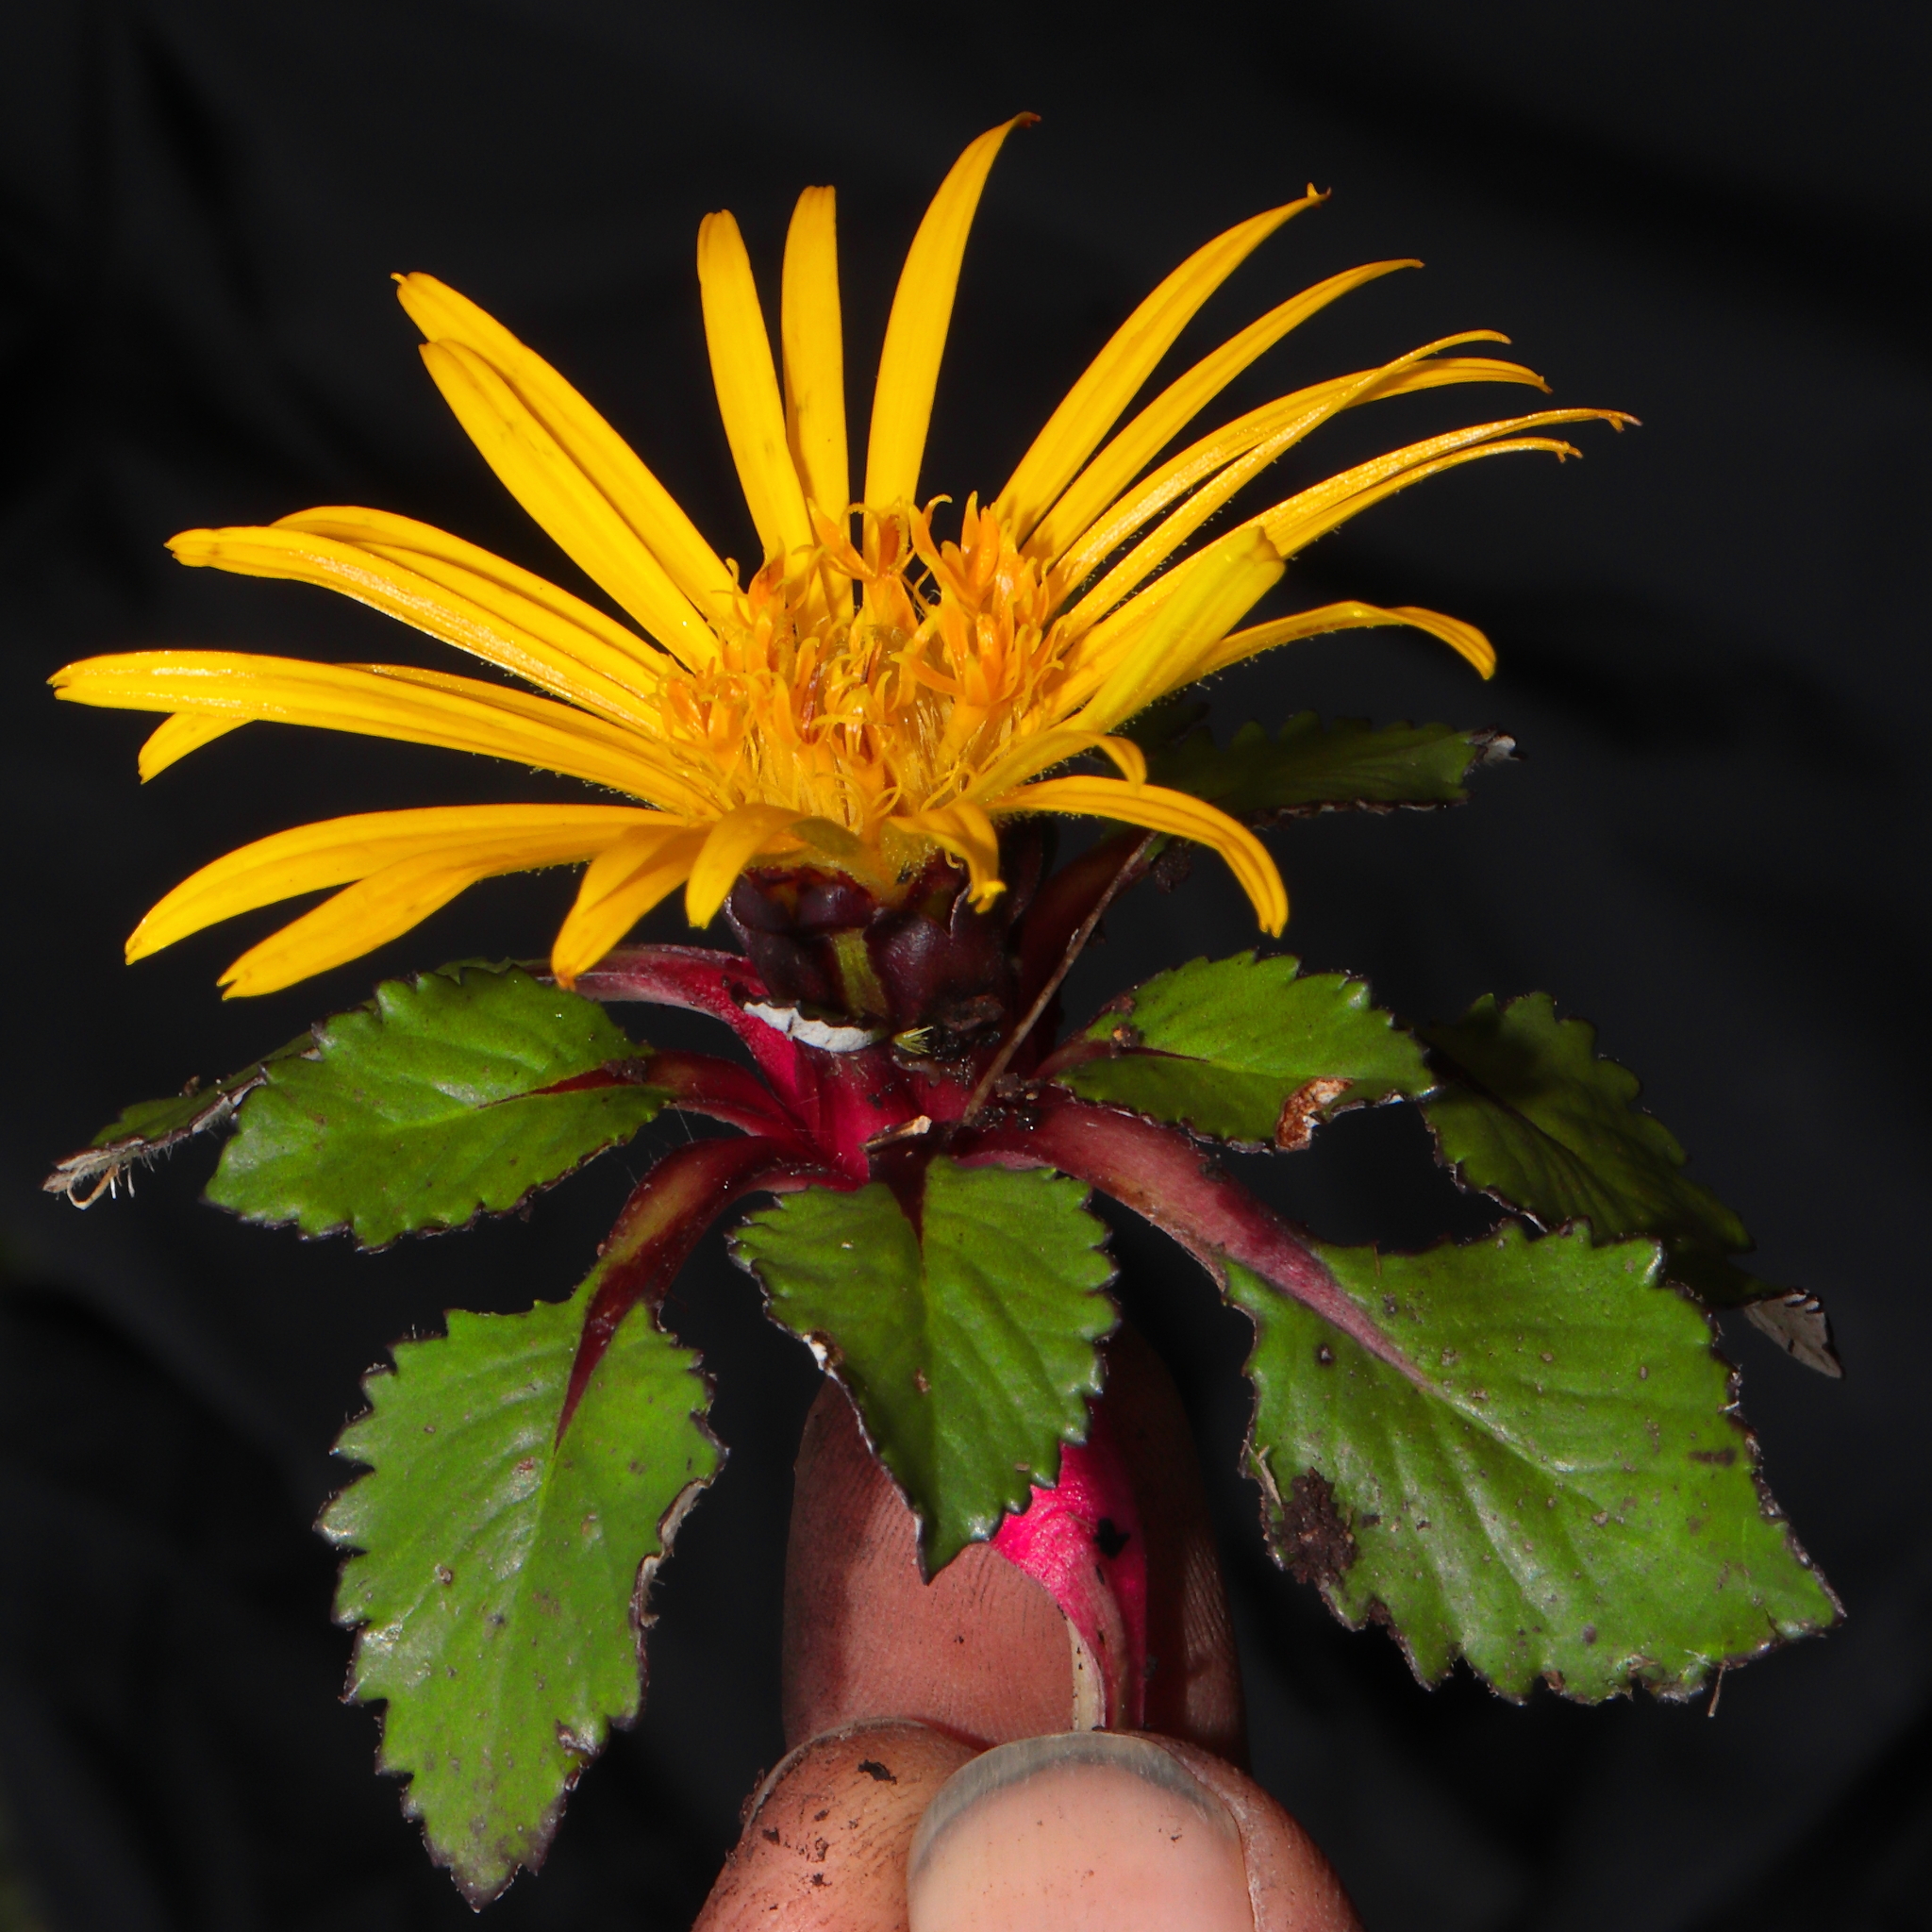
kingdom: Plantae
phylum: Tracheophyta
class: Magnoliopsida
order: Asterales
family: Asteraceae
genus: Paranephelius
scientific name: Paranephelius ovatus
